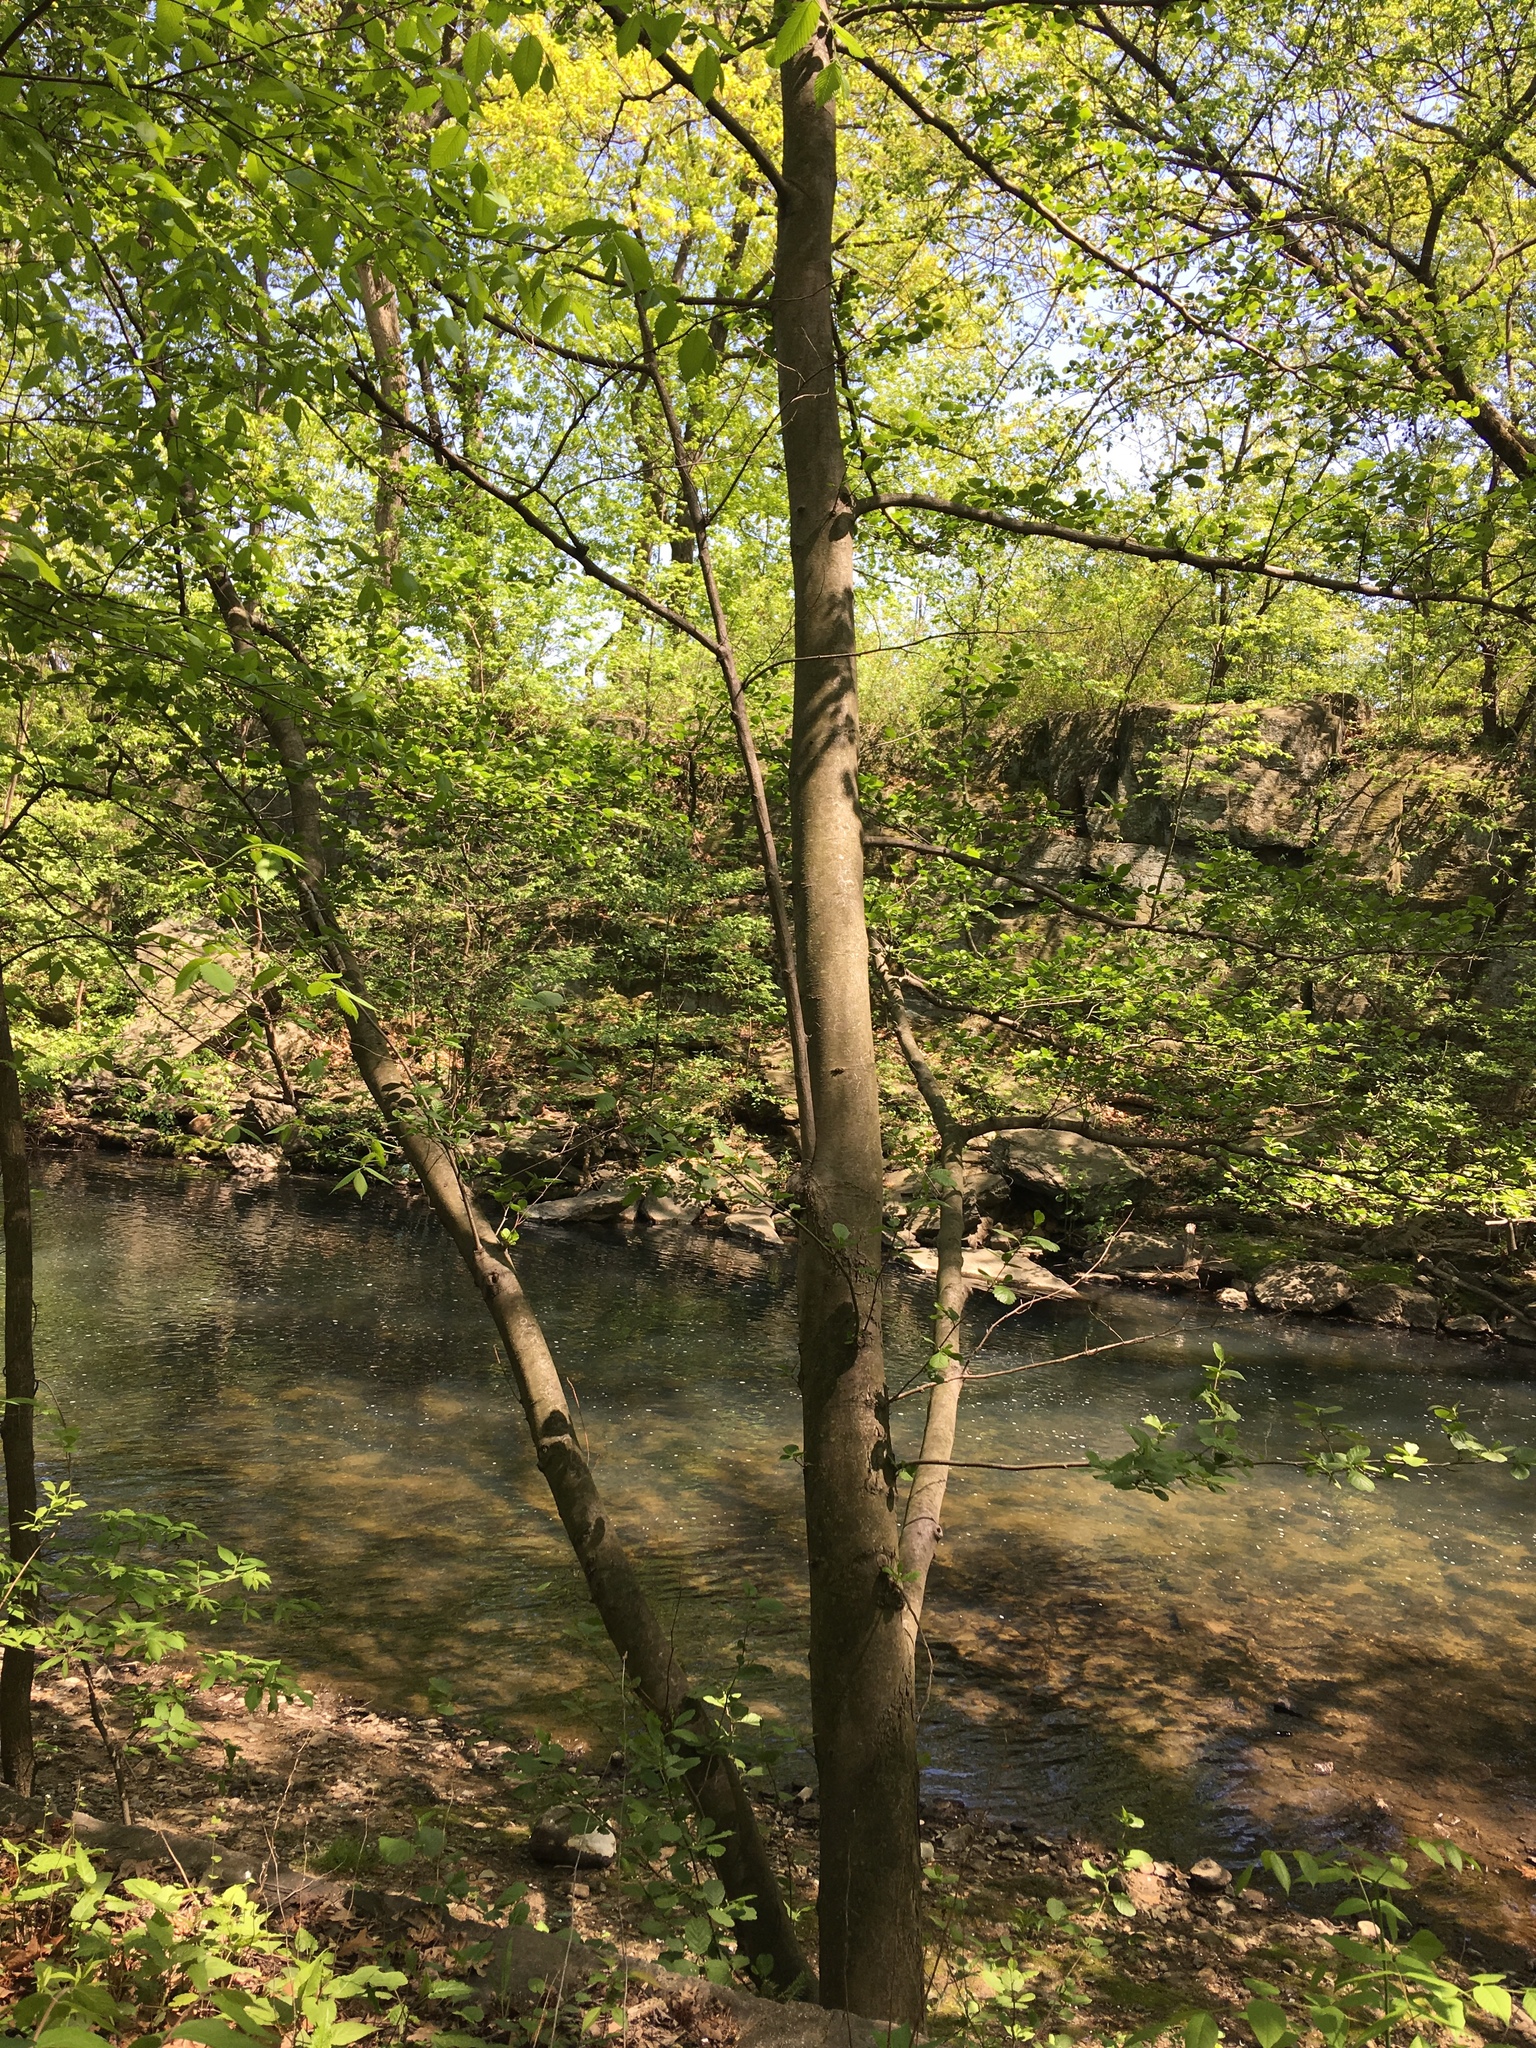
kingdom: Plantae
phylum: Tracheophyta
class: Magnoliopsida
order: Fagales
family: Betulaceae
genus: Alnus
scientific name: Alnus glutinosa
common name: Black alder
